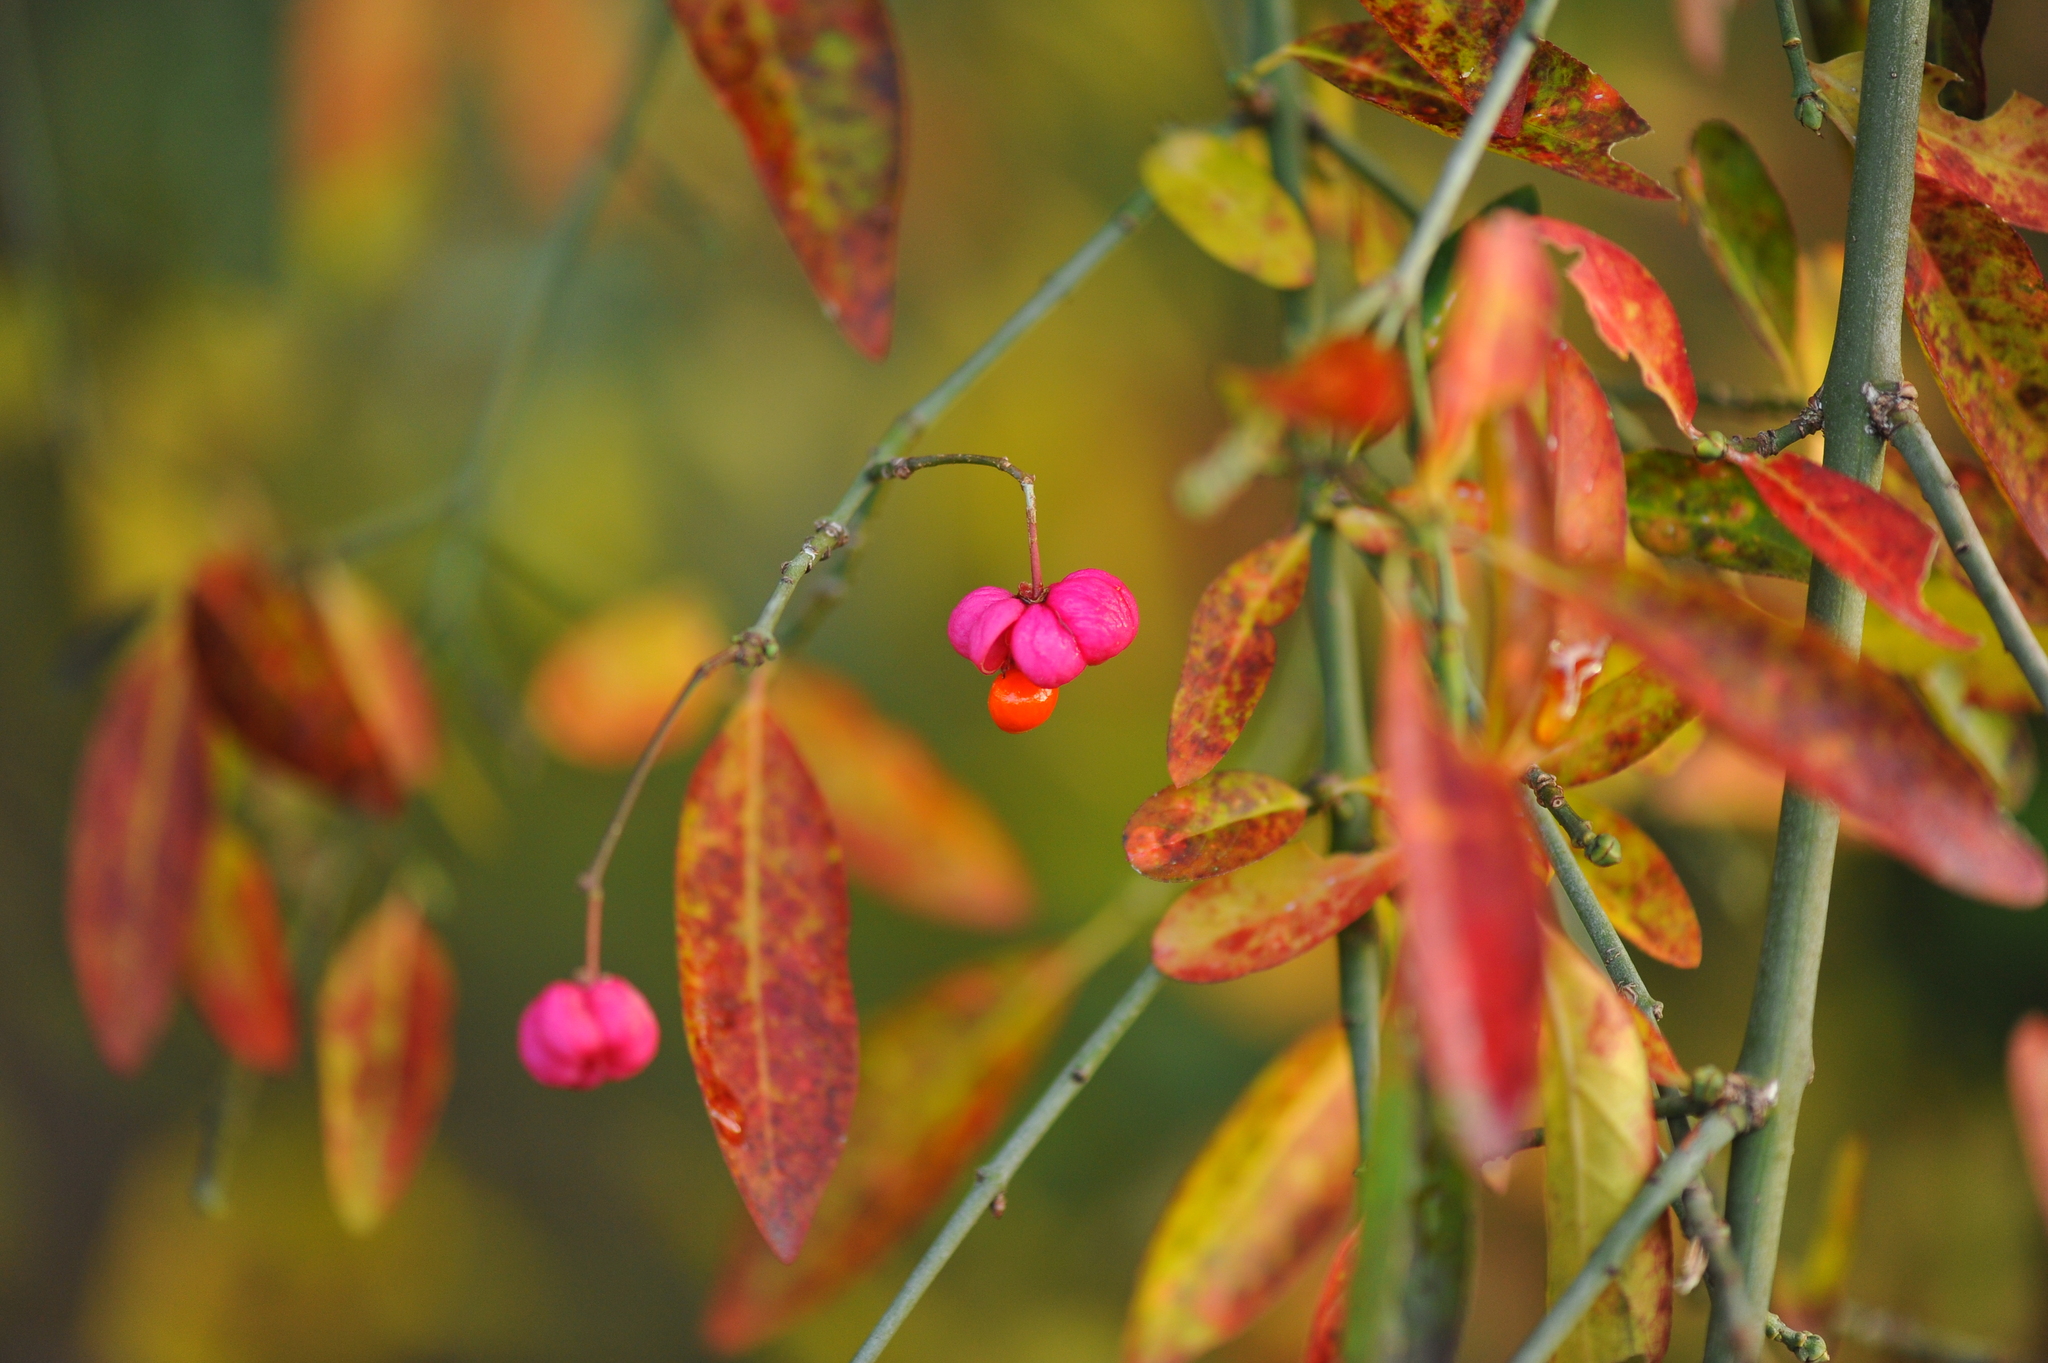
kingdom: Plantae
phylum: Tracheophyta
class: Magnoliopsida
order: Celastrales
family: Celastraceae
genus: Euonymus
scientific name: Euonymus europaeus
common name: Spindle
